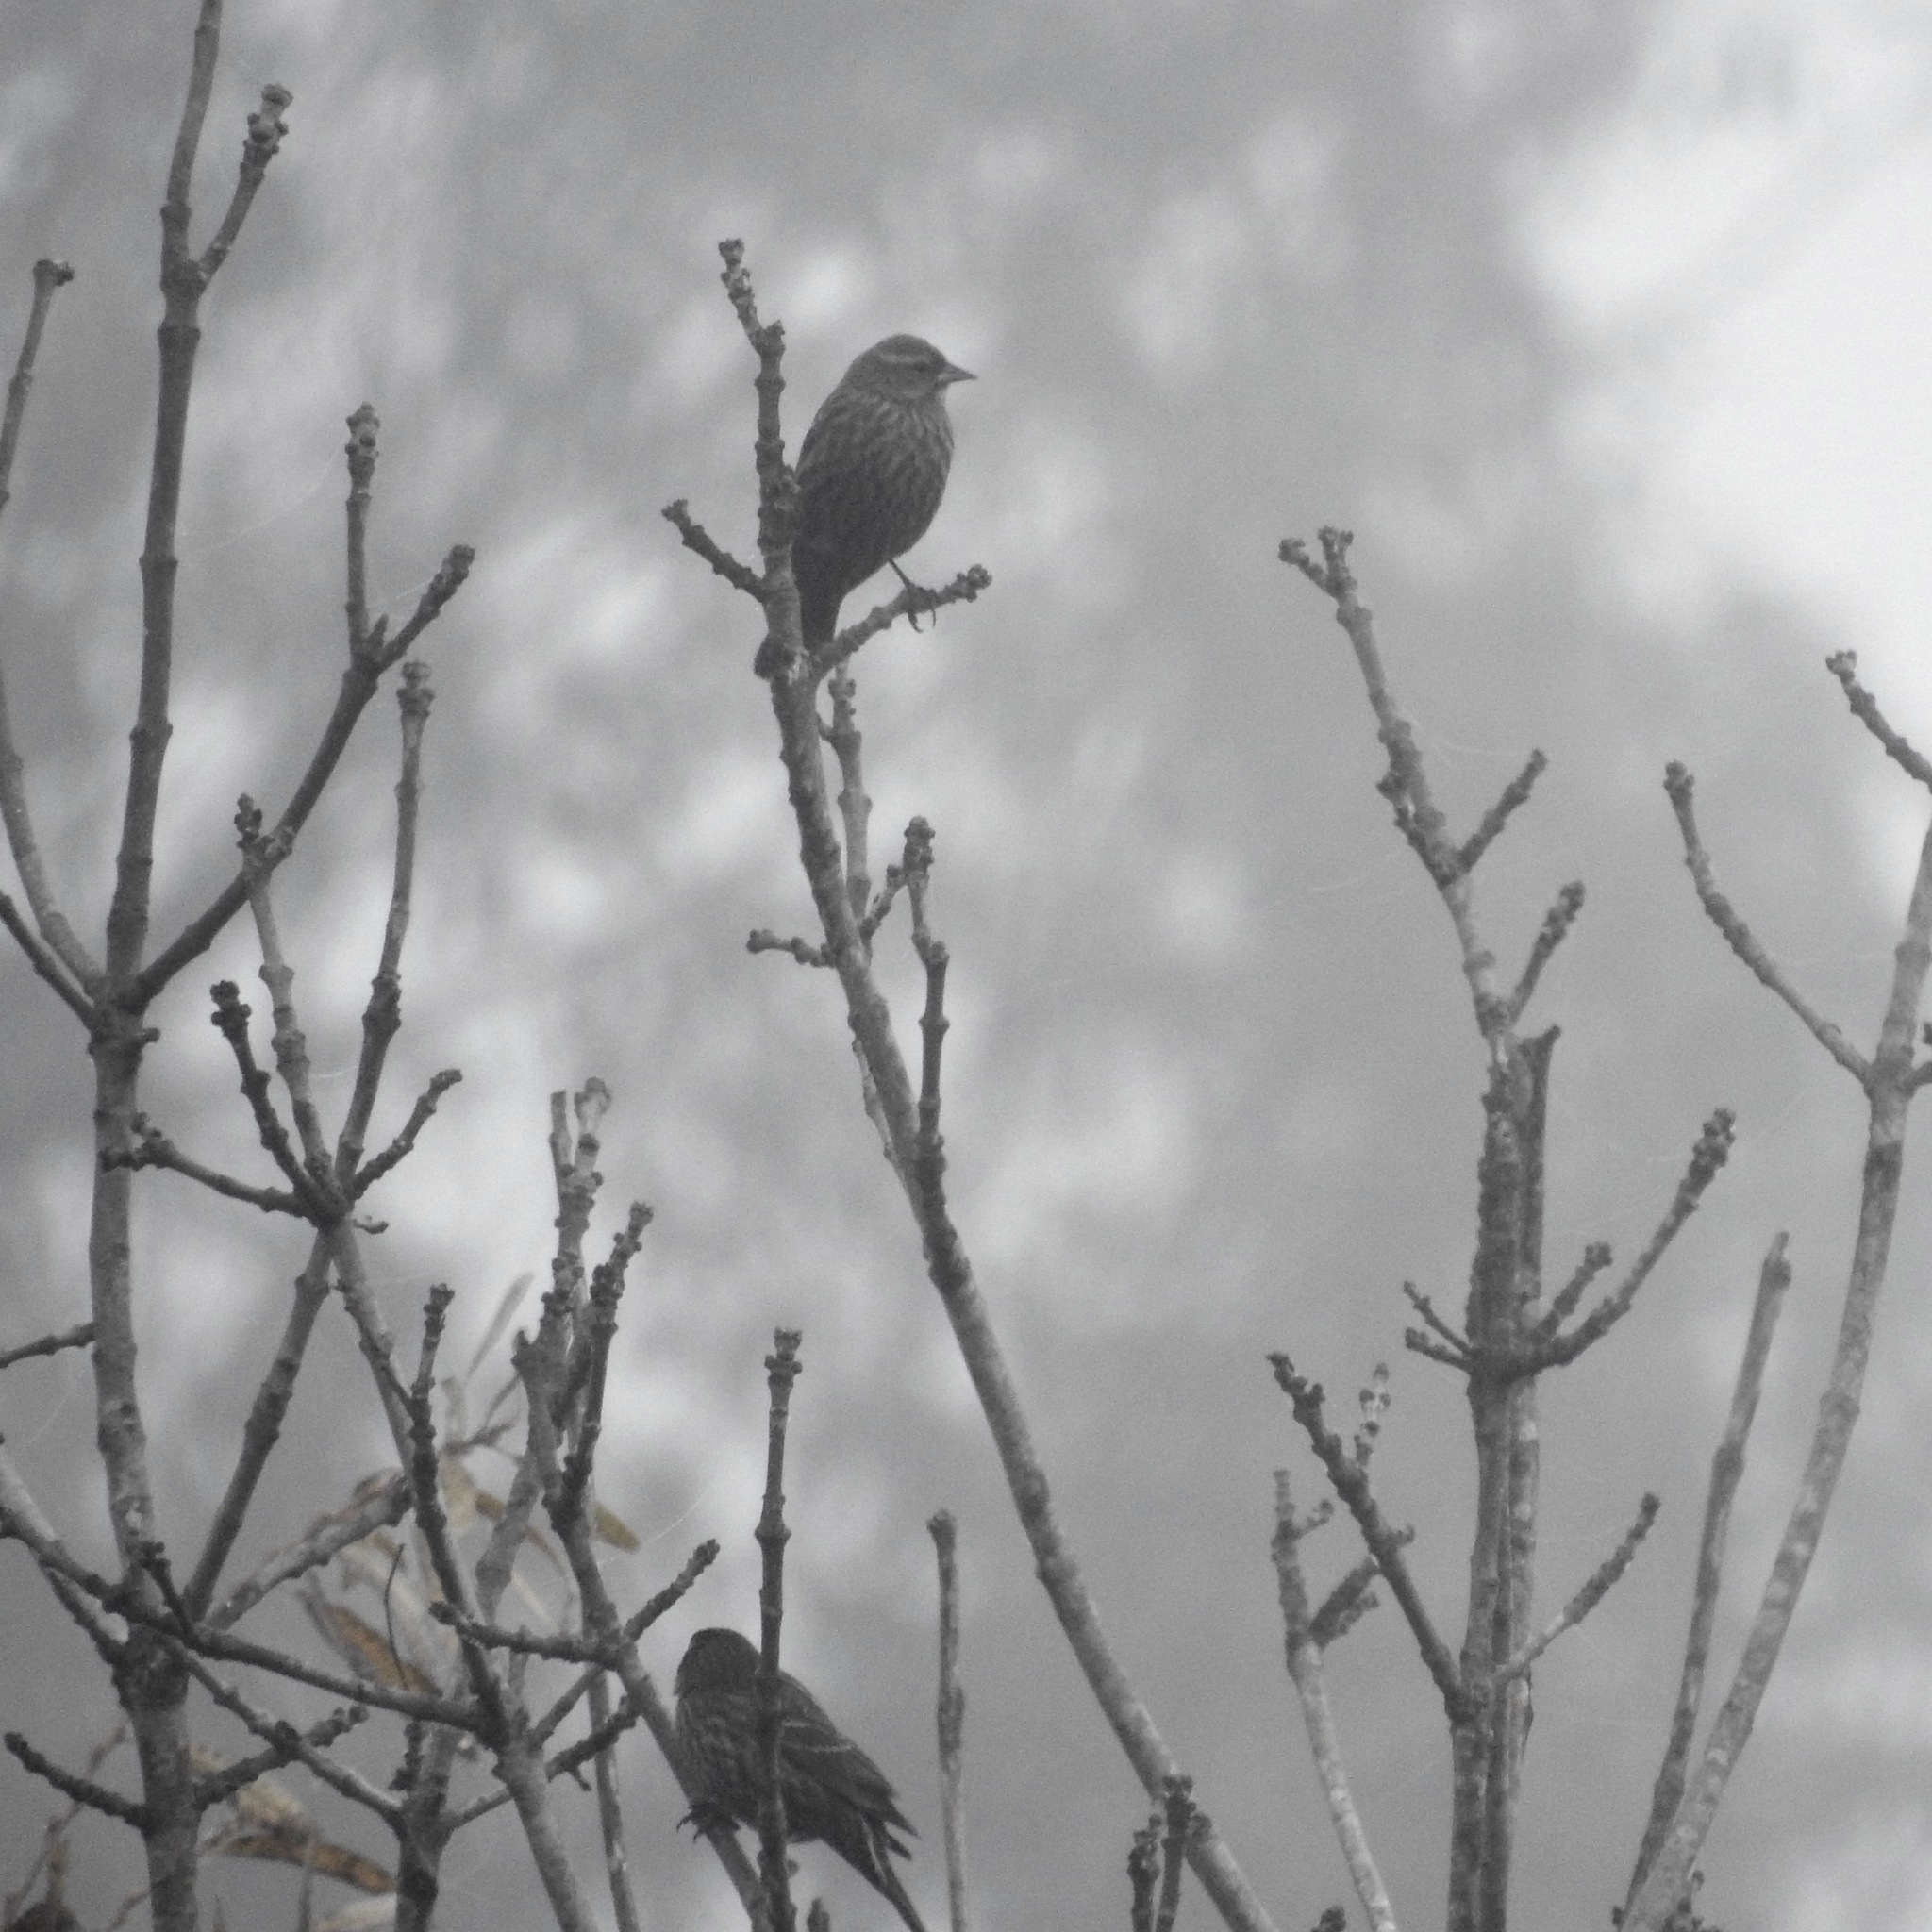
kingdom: Animalia
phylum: Chordata
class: Aves
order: Passeriformes
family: Icteridae
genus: Agelaius
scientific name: Agelaius phoeniceus
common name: Red-winged blackbird
